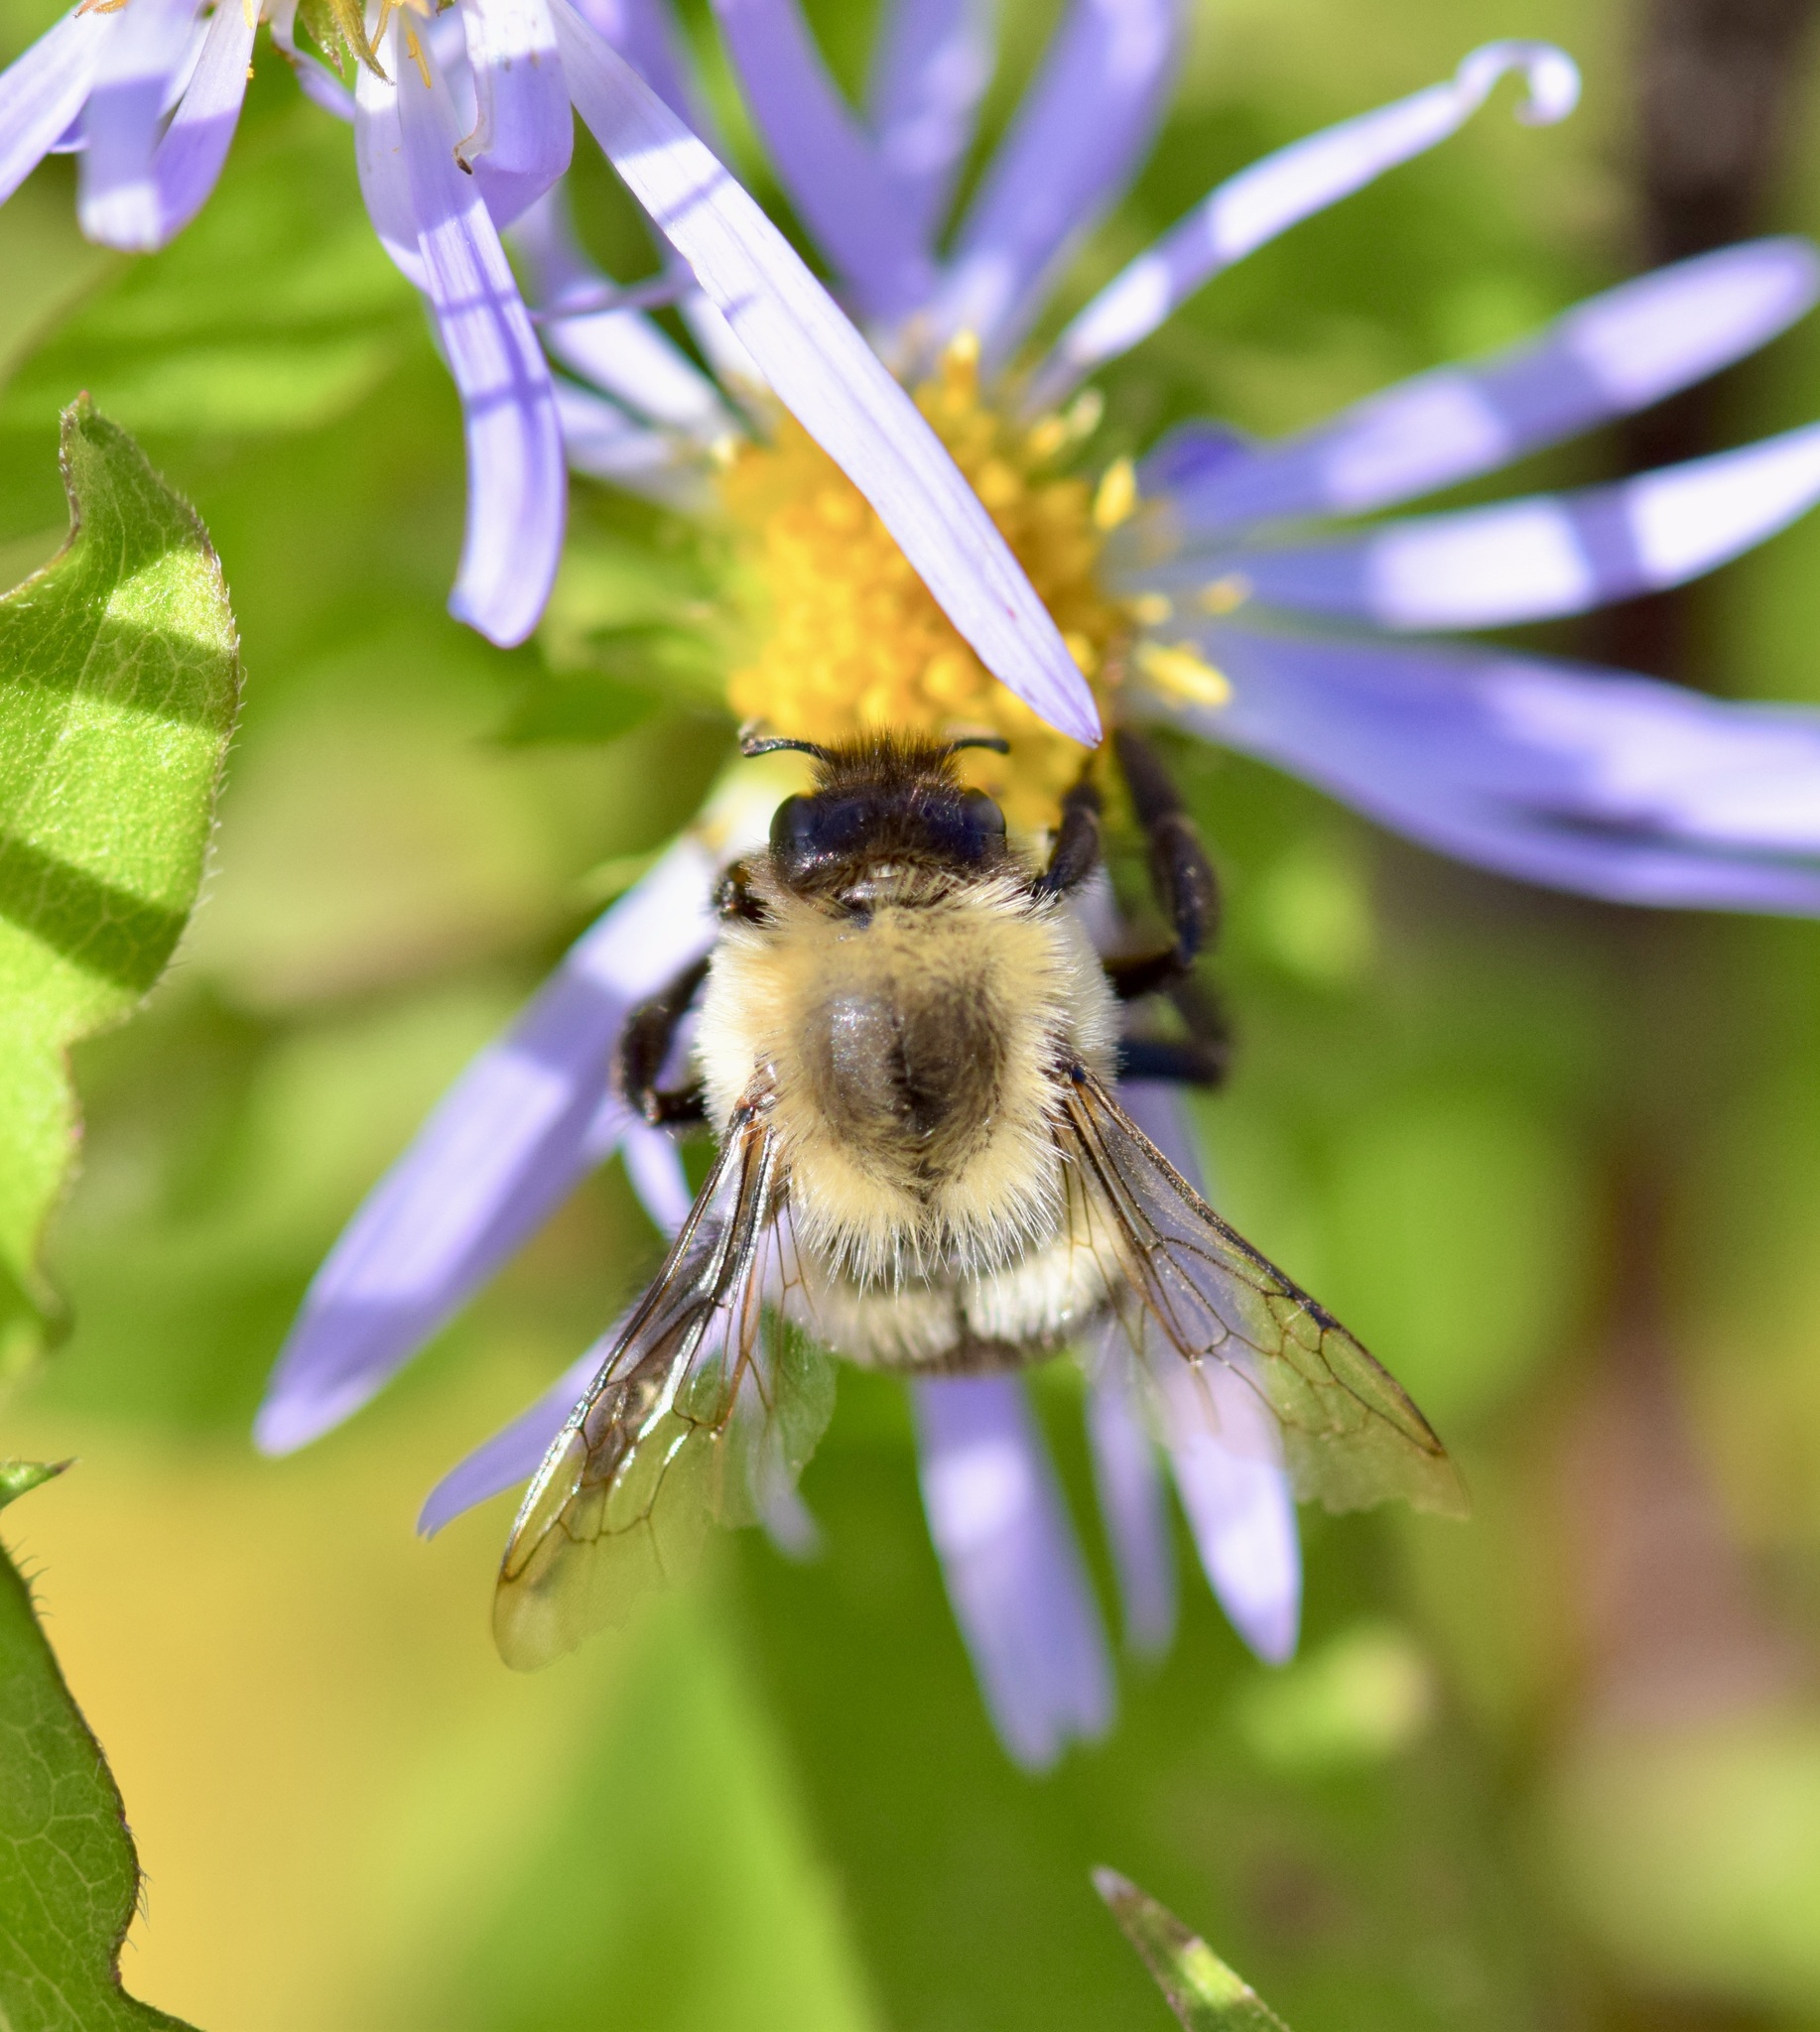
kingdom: Animalia
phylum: Arthropoda
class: Insecta
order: Hymenoptera
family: Apidae
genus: Bombus
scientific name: Bombus impatiens
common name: Common eastern bumble bee
